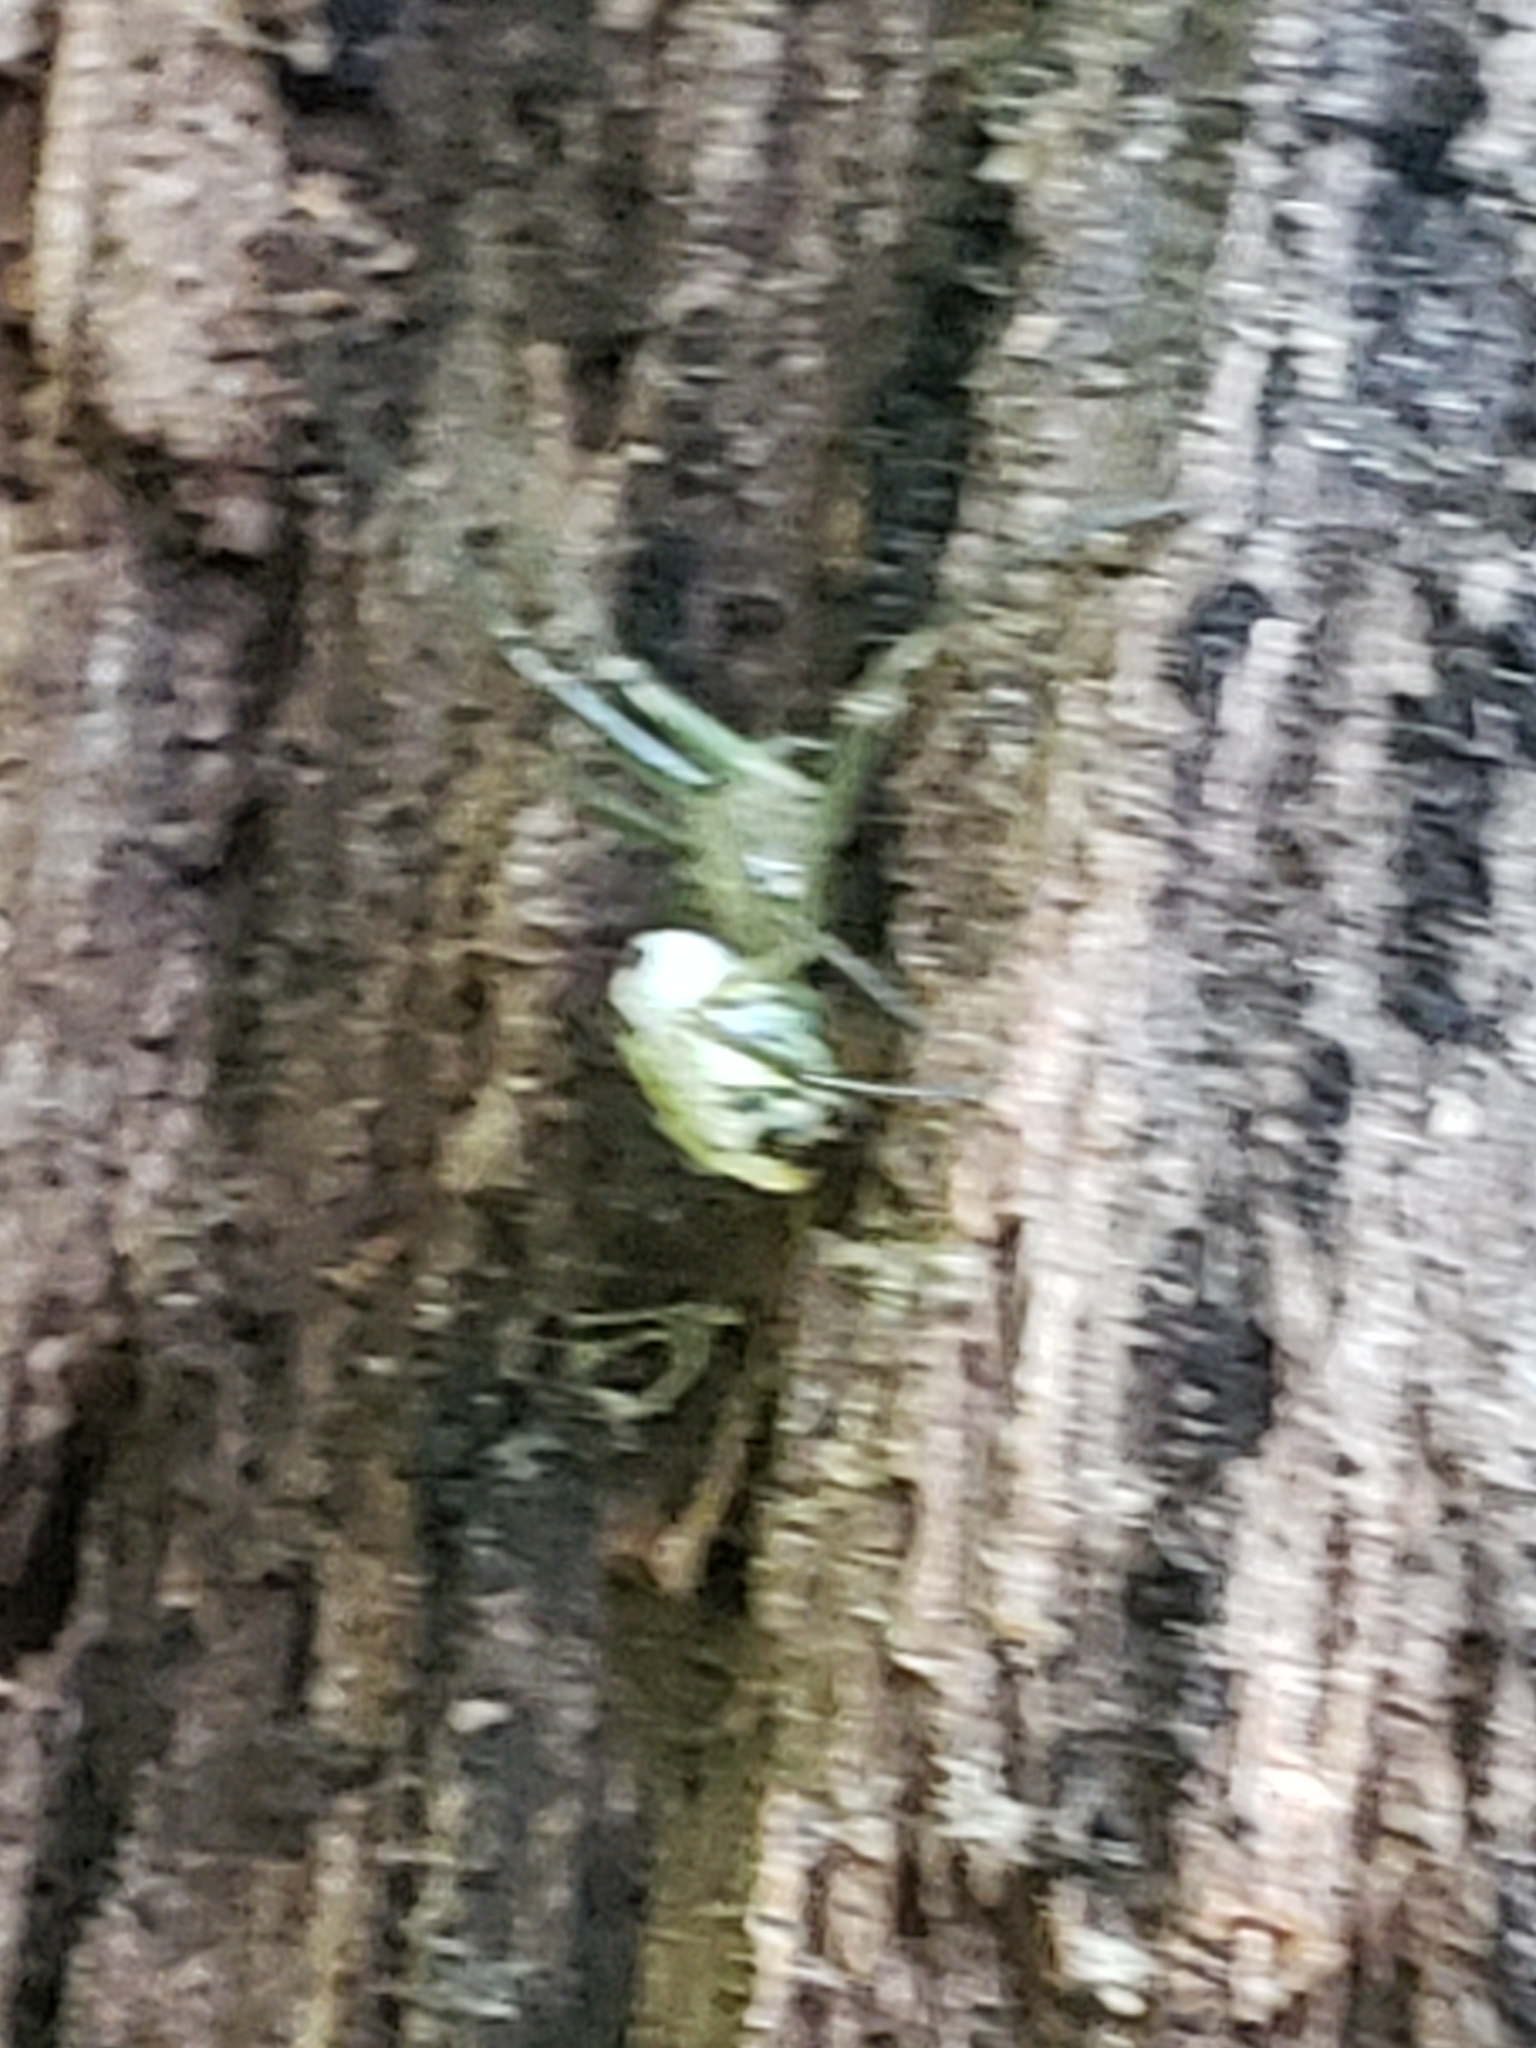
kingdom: Animalia
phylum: Arthropoda
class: Arachnida
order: Araneae
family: Tetragnathidae
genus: Leucauge
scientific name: Leucauge venusta
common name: Longjawed orb weavers
